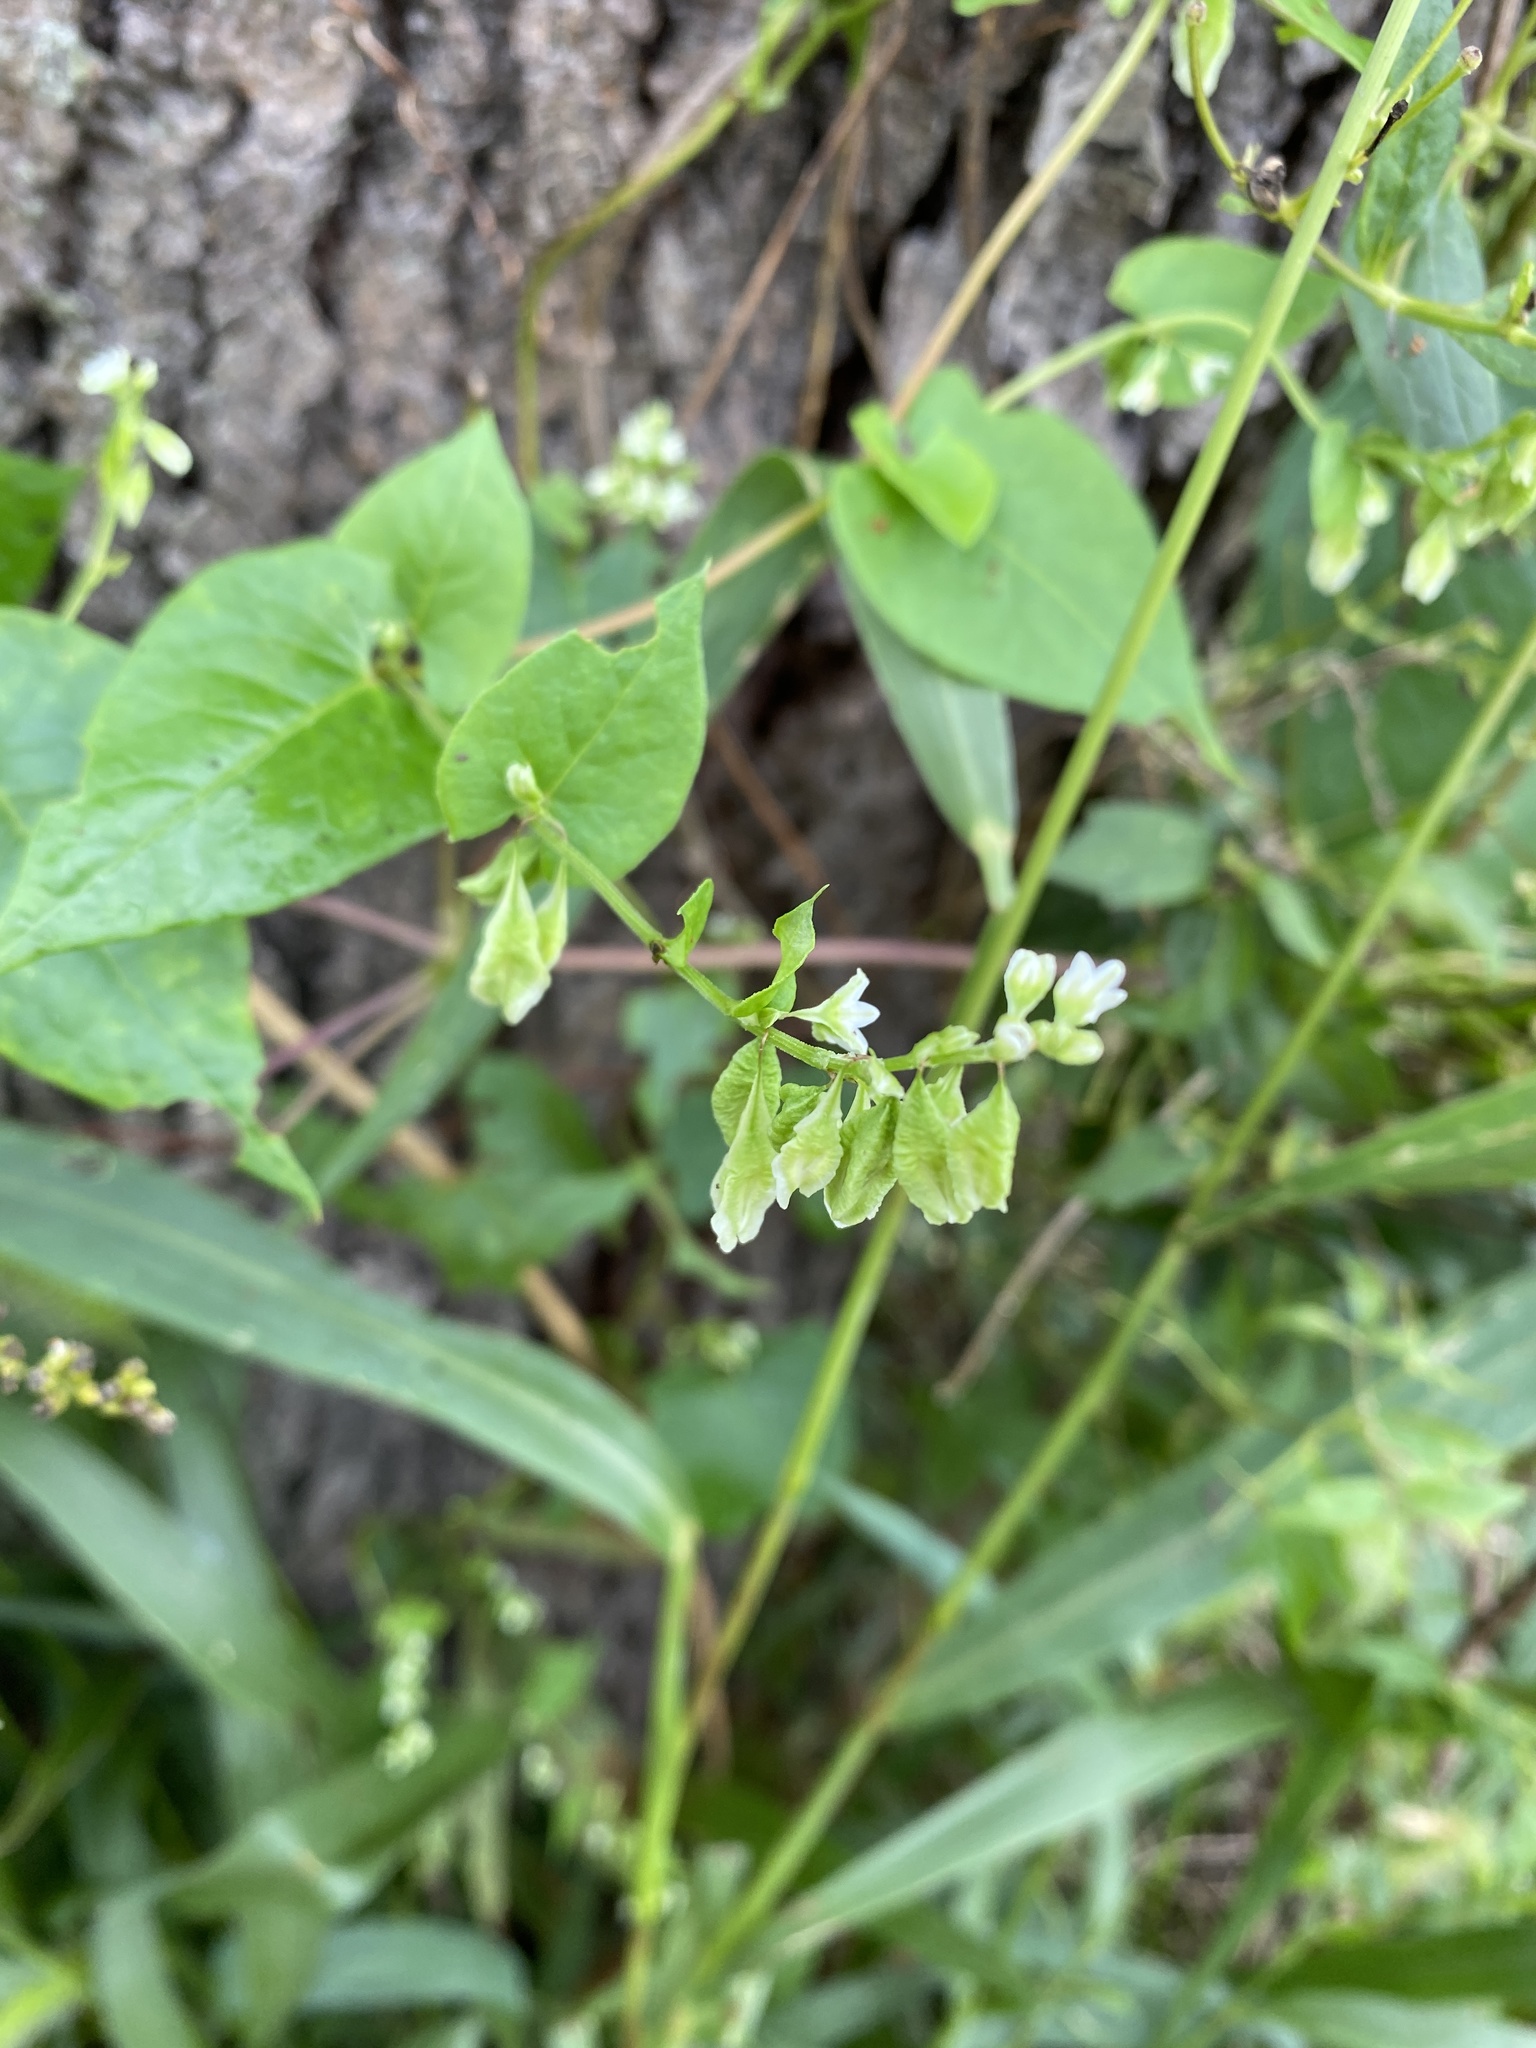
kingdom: Plantae
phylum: Tracheophyta
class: Magnoliopsida
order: Caryophyllales
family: Polygonaceae
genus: Fallopia
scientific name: Fallopia scandens
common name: Climbing false buckwheat
